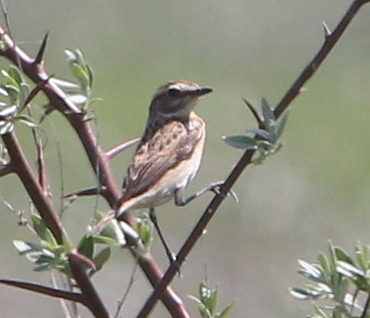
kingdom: Animalia
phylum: Chordata
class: Aves
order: Passeriformes
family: Muscicapidae
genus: Saxicola
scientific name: Saxicola rubetra
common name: Whinchat
